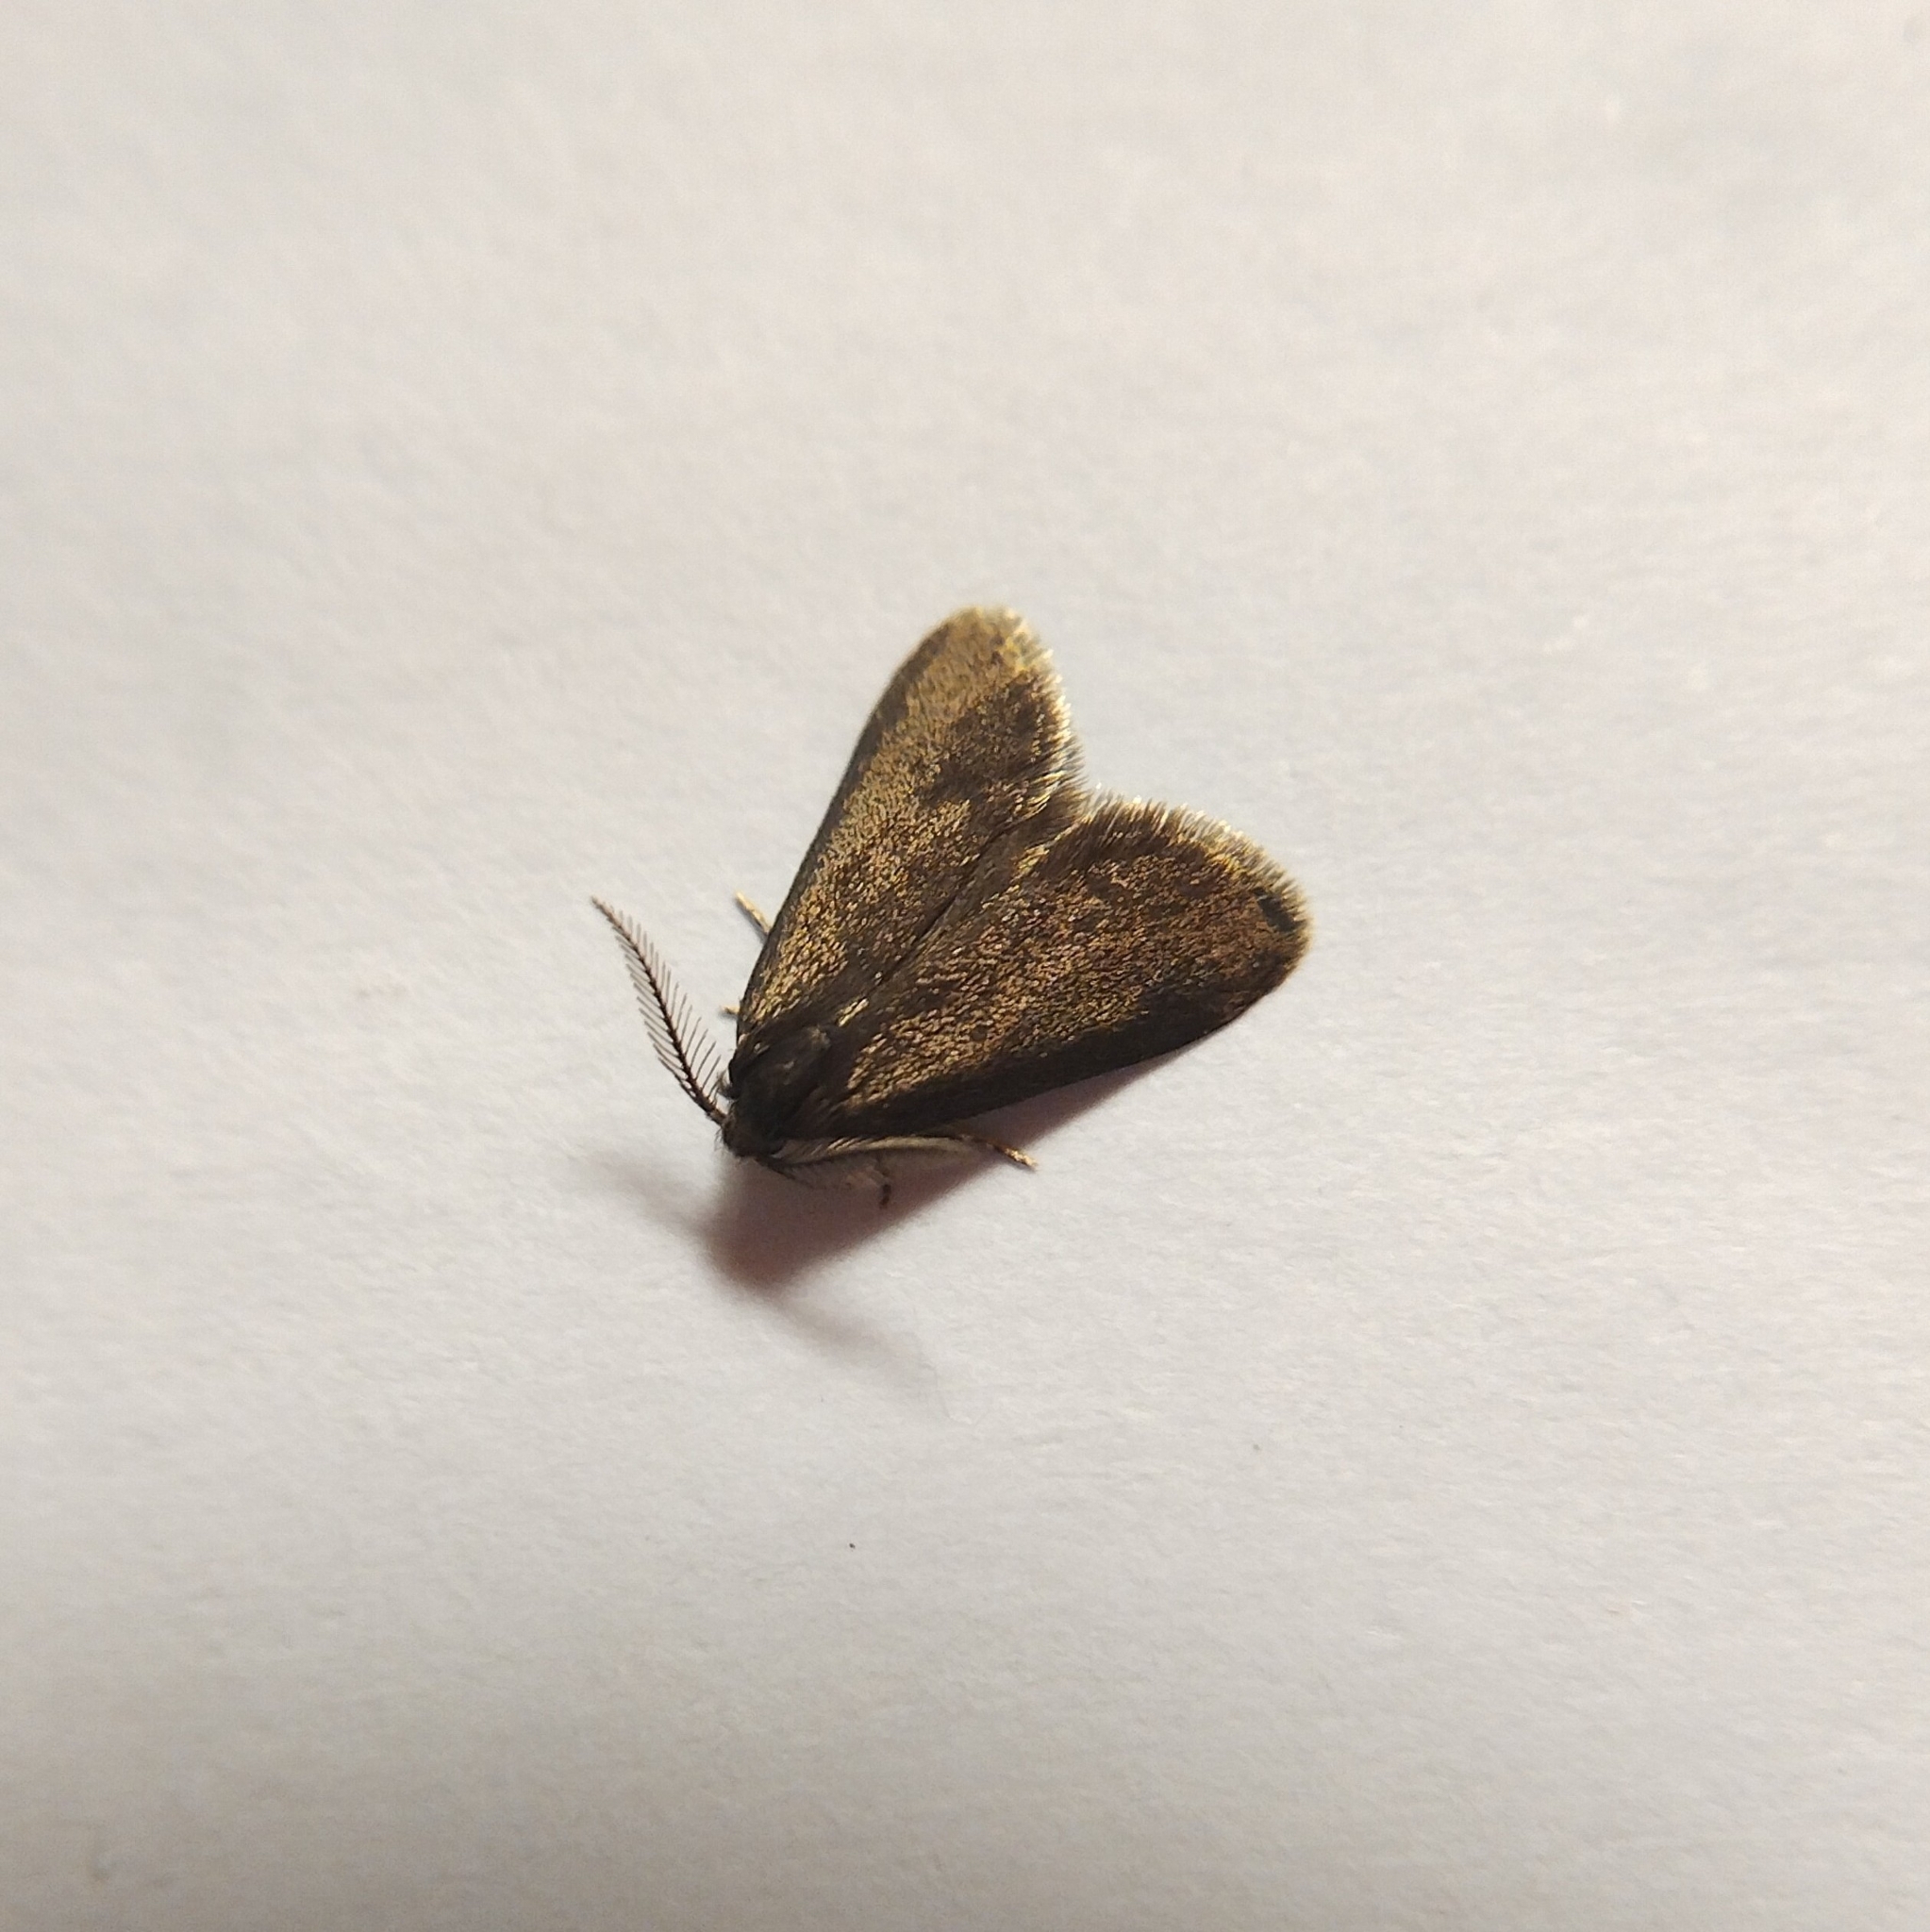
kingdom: Animalia
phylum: Arthropoda
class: Insecta
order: Lepidoptera
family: Psychidae
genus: Psyche
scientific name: Psyche casta
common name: Common sweep
